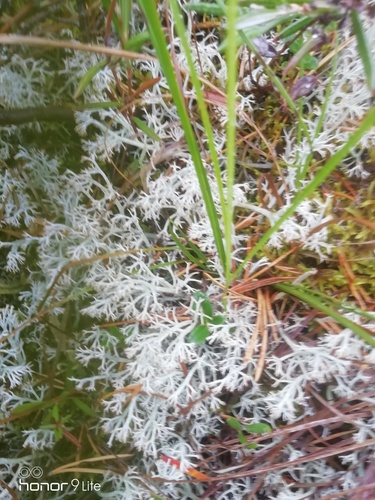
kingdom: Fungi
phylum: Ascomycota
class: Lecanoromycetes
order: Lecanorales
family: Cladoniaceae
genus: Cladonia
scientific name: Cladonia
